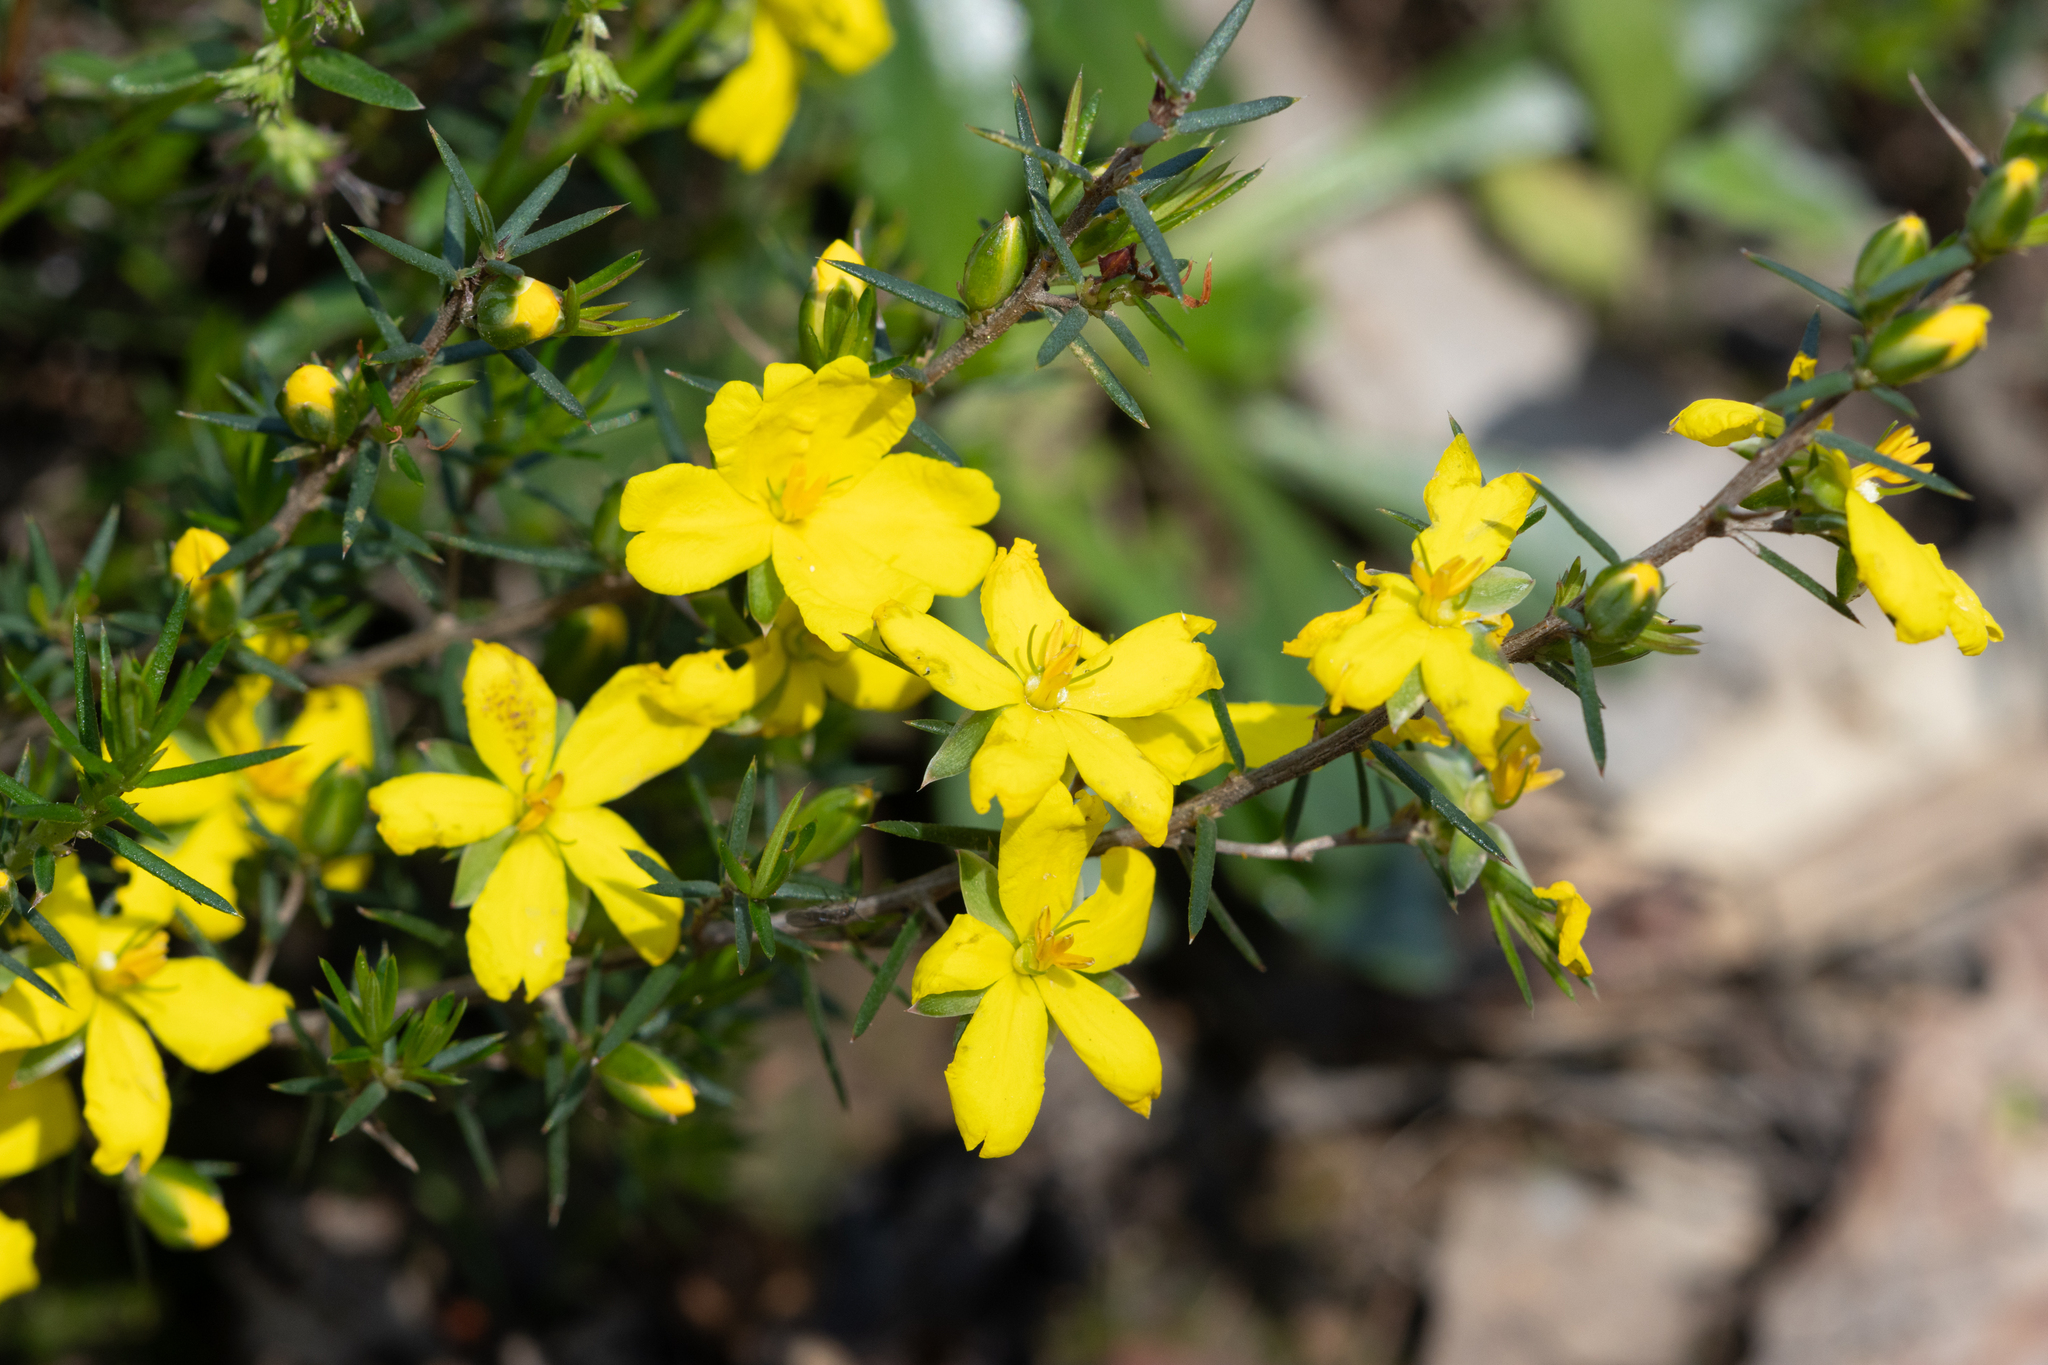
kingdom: Plantae
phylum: Tracheophyta
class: Magnoliopsida
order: Dilleniales
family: Dilleniaceae
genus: Hibbertia
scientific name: Hibbertia exutiacies
